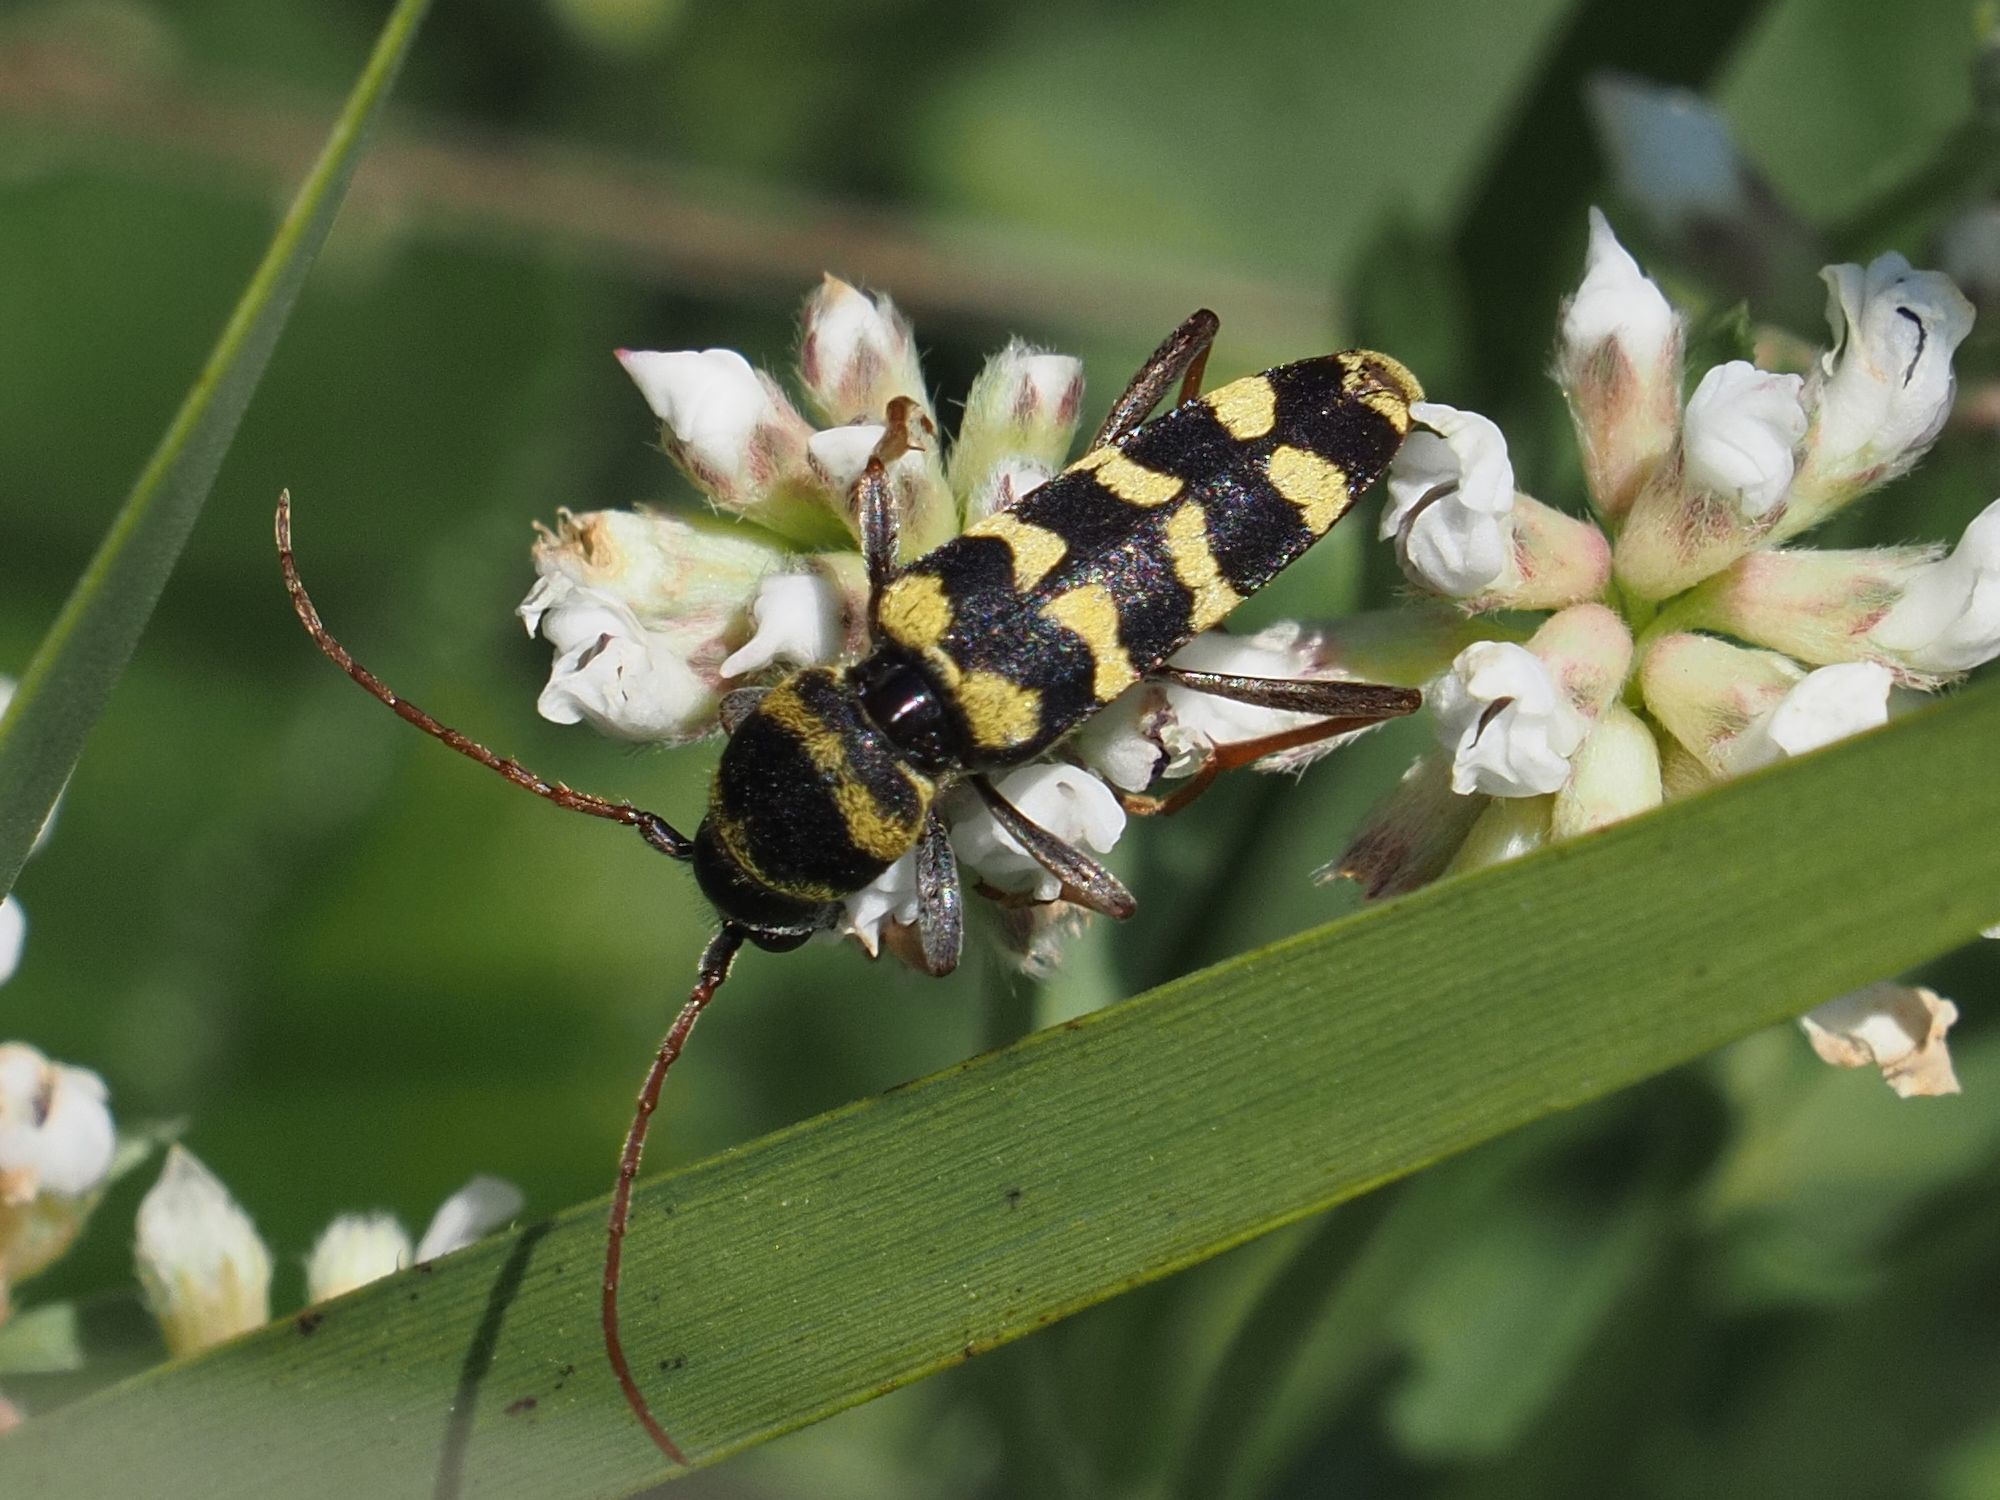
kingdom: Animalia
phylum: Arthropoda
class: Insecta
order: Coleoptera
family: Cerambycidae
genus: Plagionotus
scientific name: Plagionotus floralis
